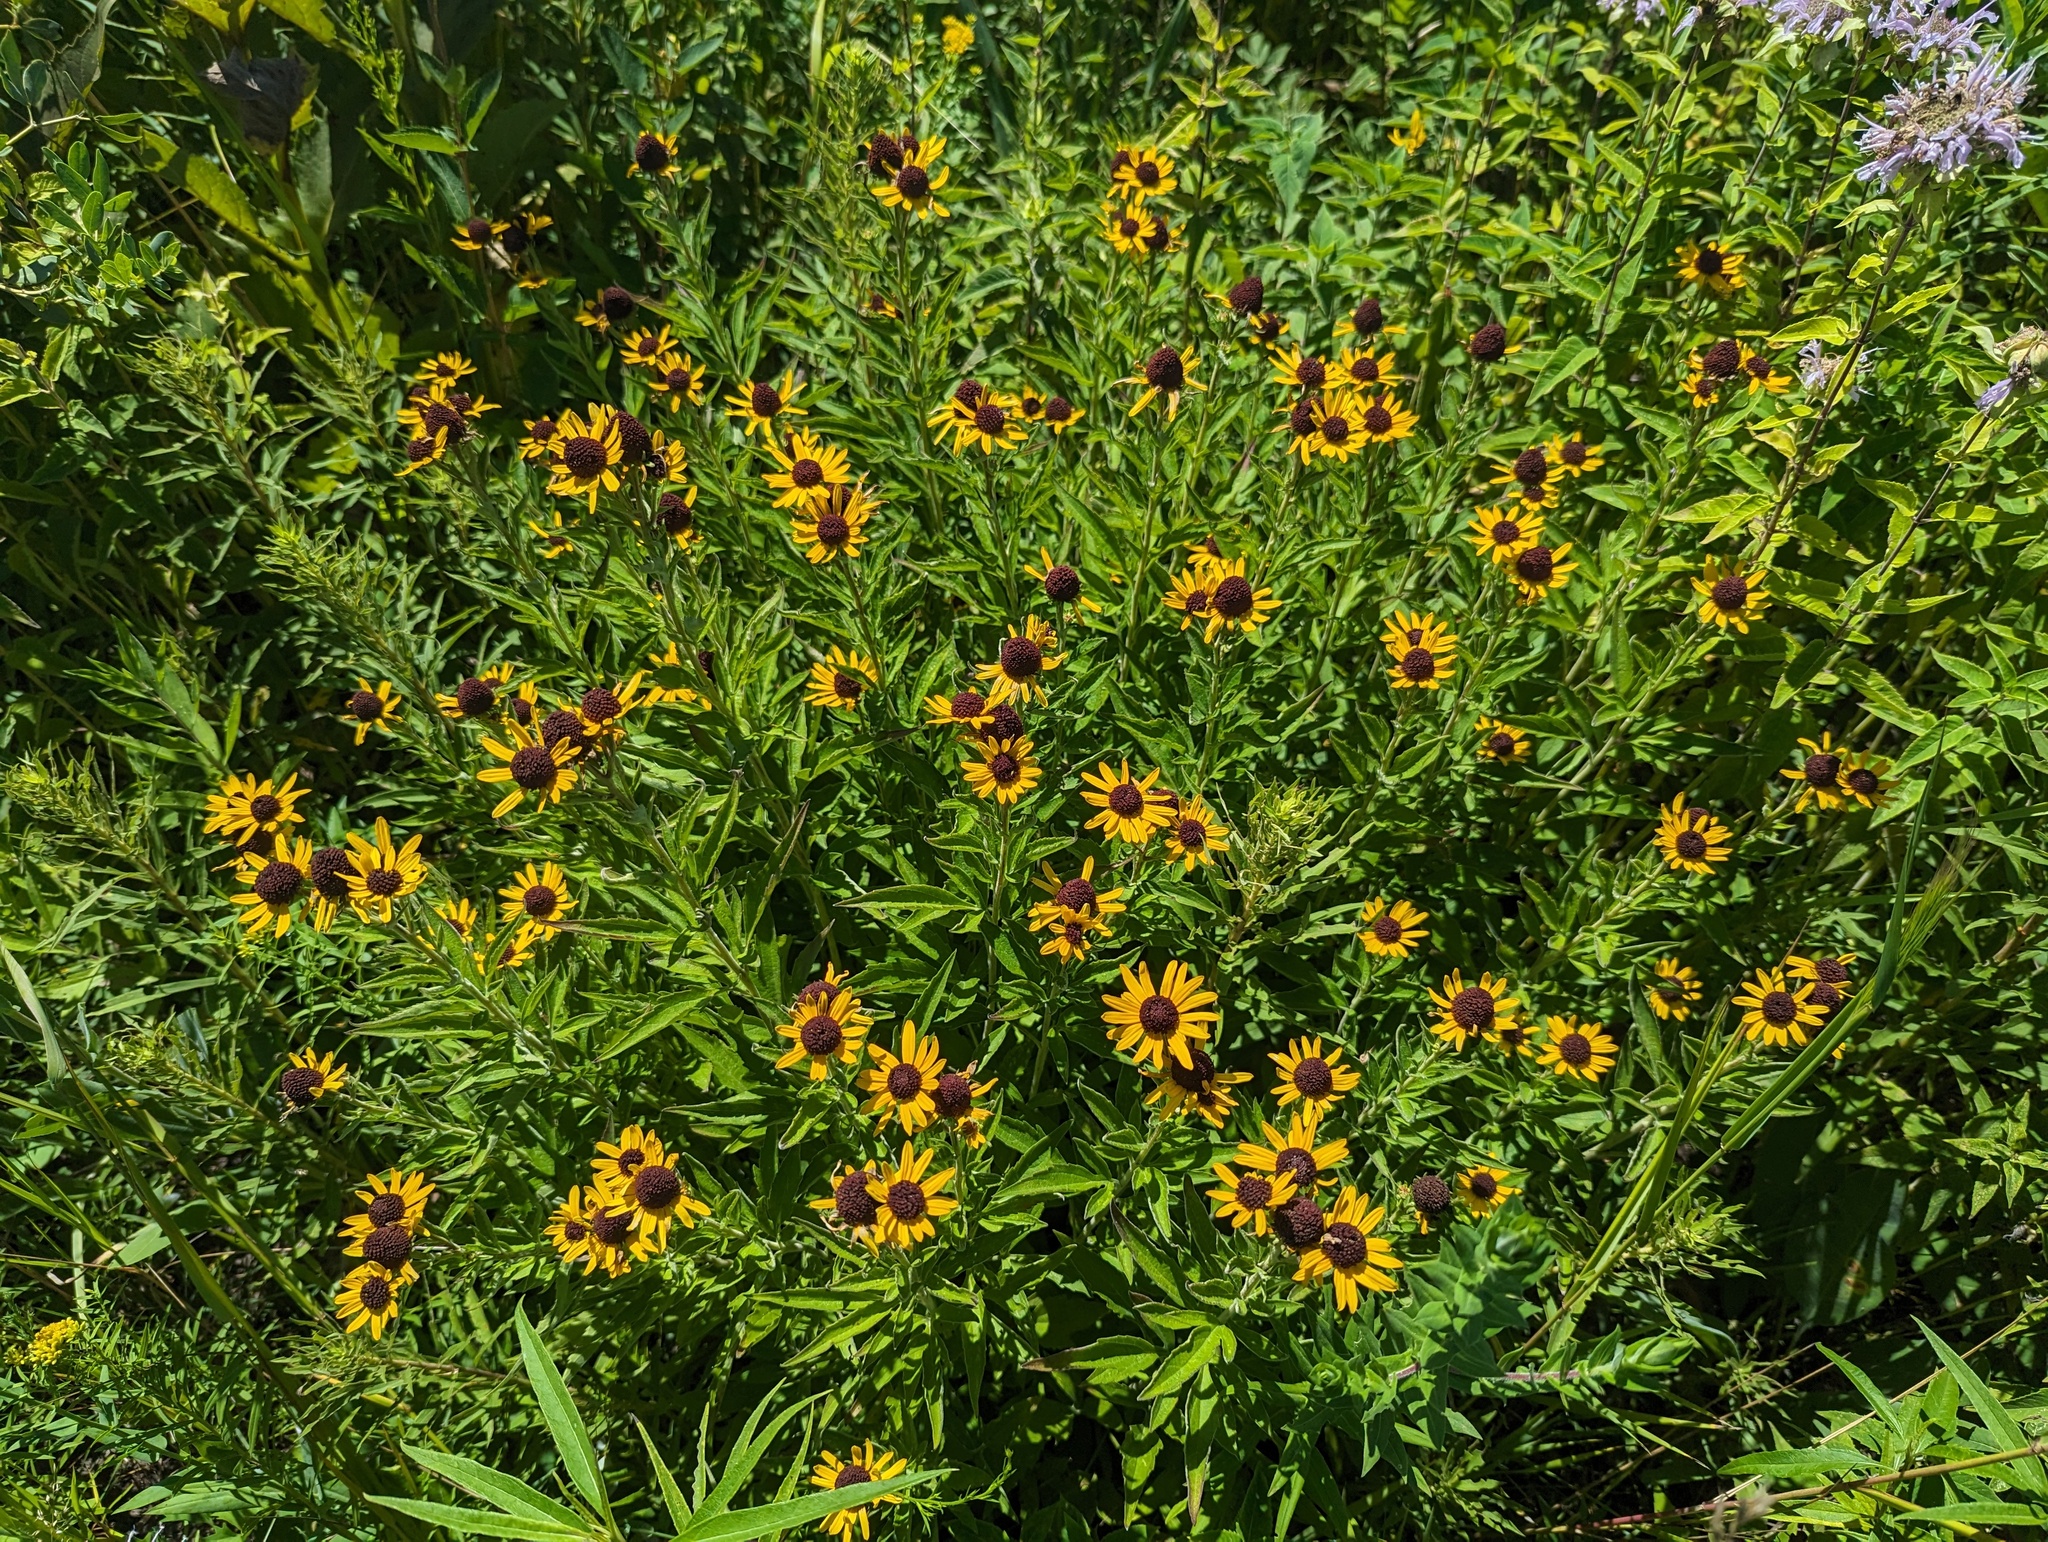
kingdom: Plantae
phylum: Tracheophyta
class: Magnoliopsida
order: Asterales
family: Asteraceae
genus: Rudbeckia
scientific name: Rudbeckia subtomentosa
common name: Sweet coneflower
